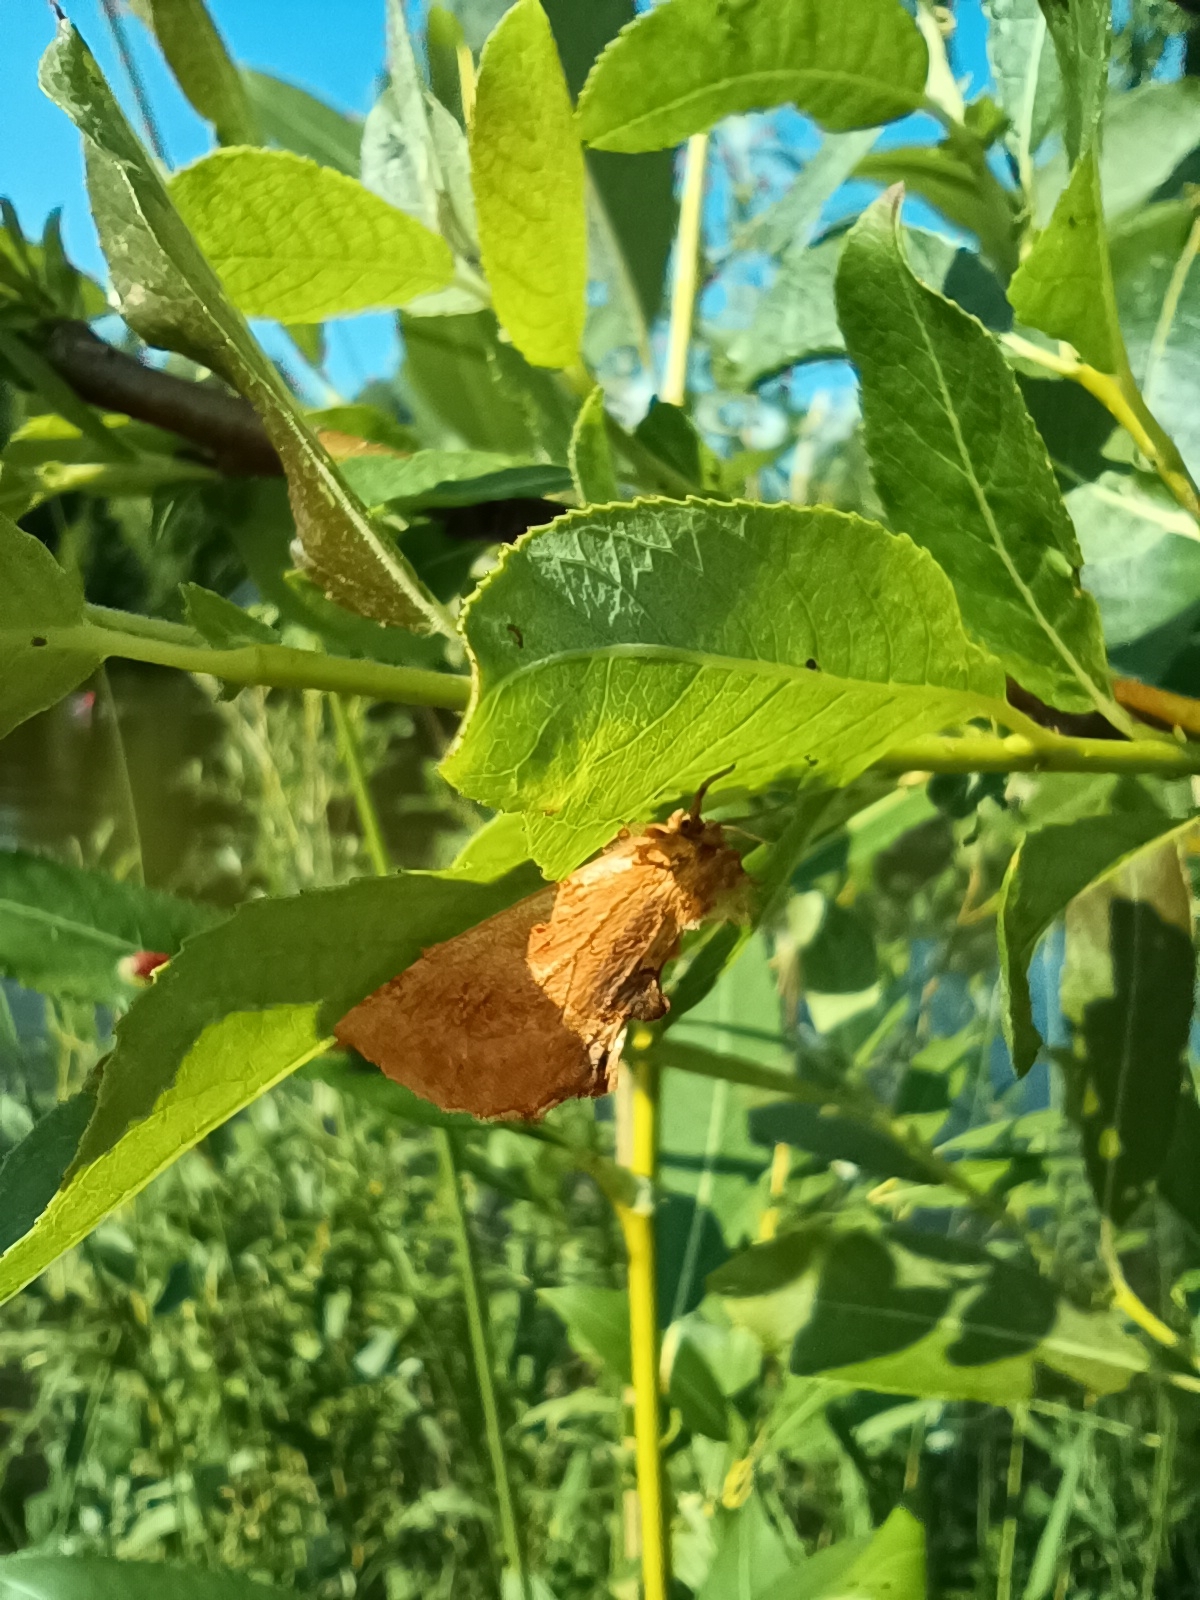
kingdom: Animalia
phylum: Arthropoda
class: Insecta
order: Lepidoptera
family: Notodontidae
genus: Ptilodon
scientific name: Ptilodon capucina
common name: Coxcomb prominent
